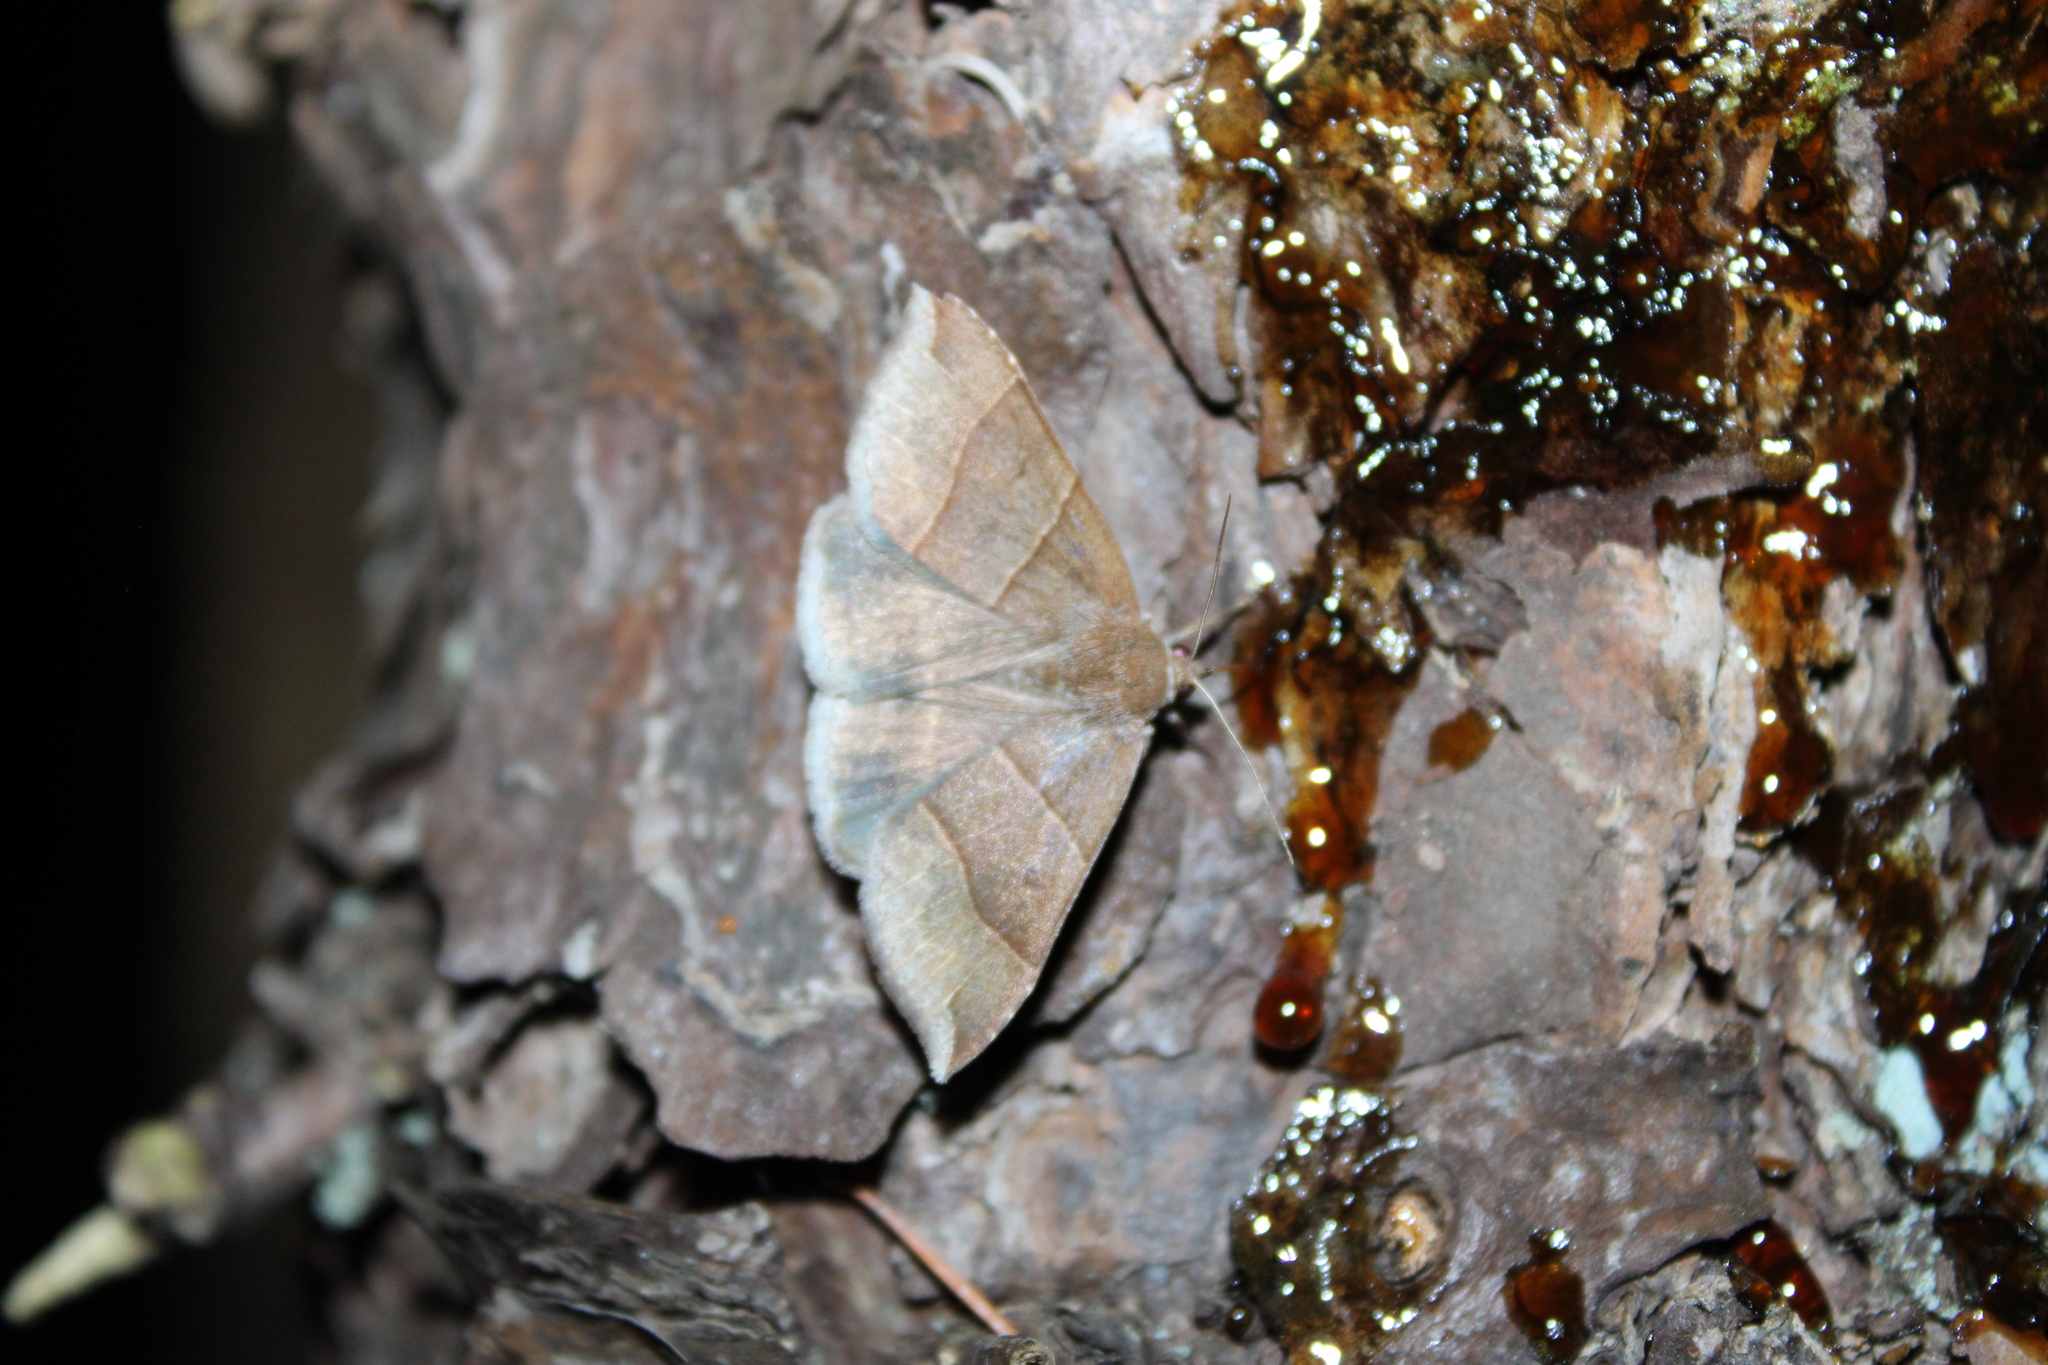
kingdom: Animalia
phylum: Arthropoda
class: Insecta
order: Lepidoptera
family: Erebidae
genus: Parallelia
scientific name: Parallelia bistriaris
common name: Maple looper moth
